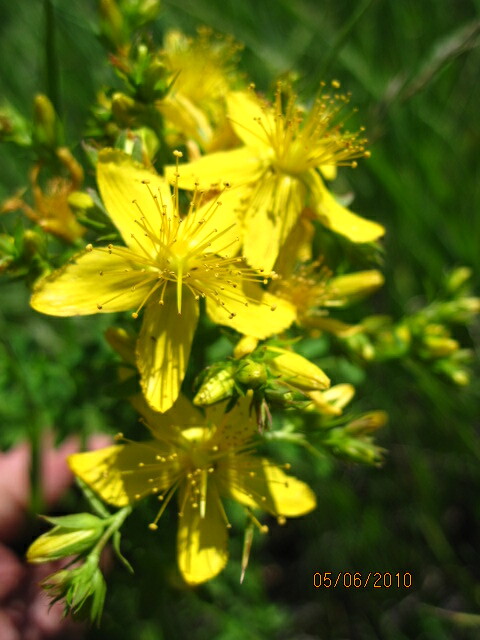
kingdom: Plantae
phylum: Tracheophyta
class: Magnoliopsida
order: Malpighiales
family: Hypericaceae
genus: Hypericum
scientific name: Hypericum perforatum
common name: Common st. johnswort
